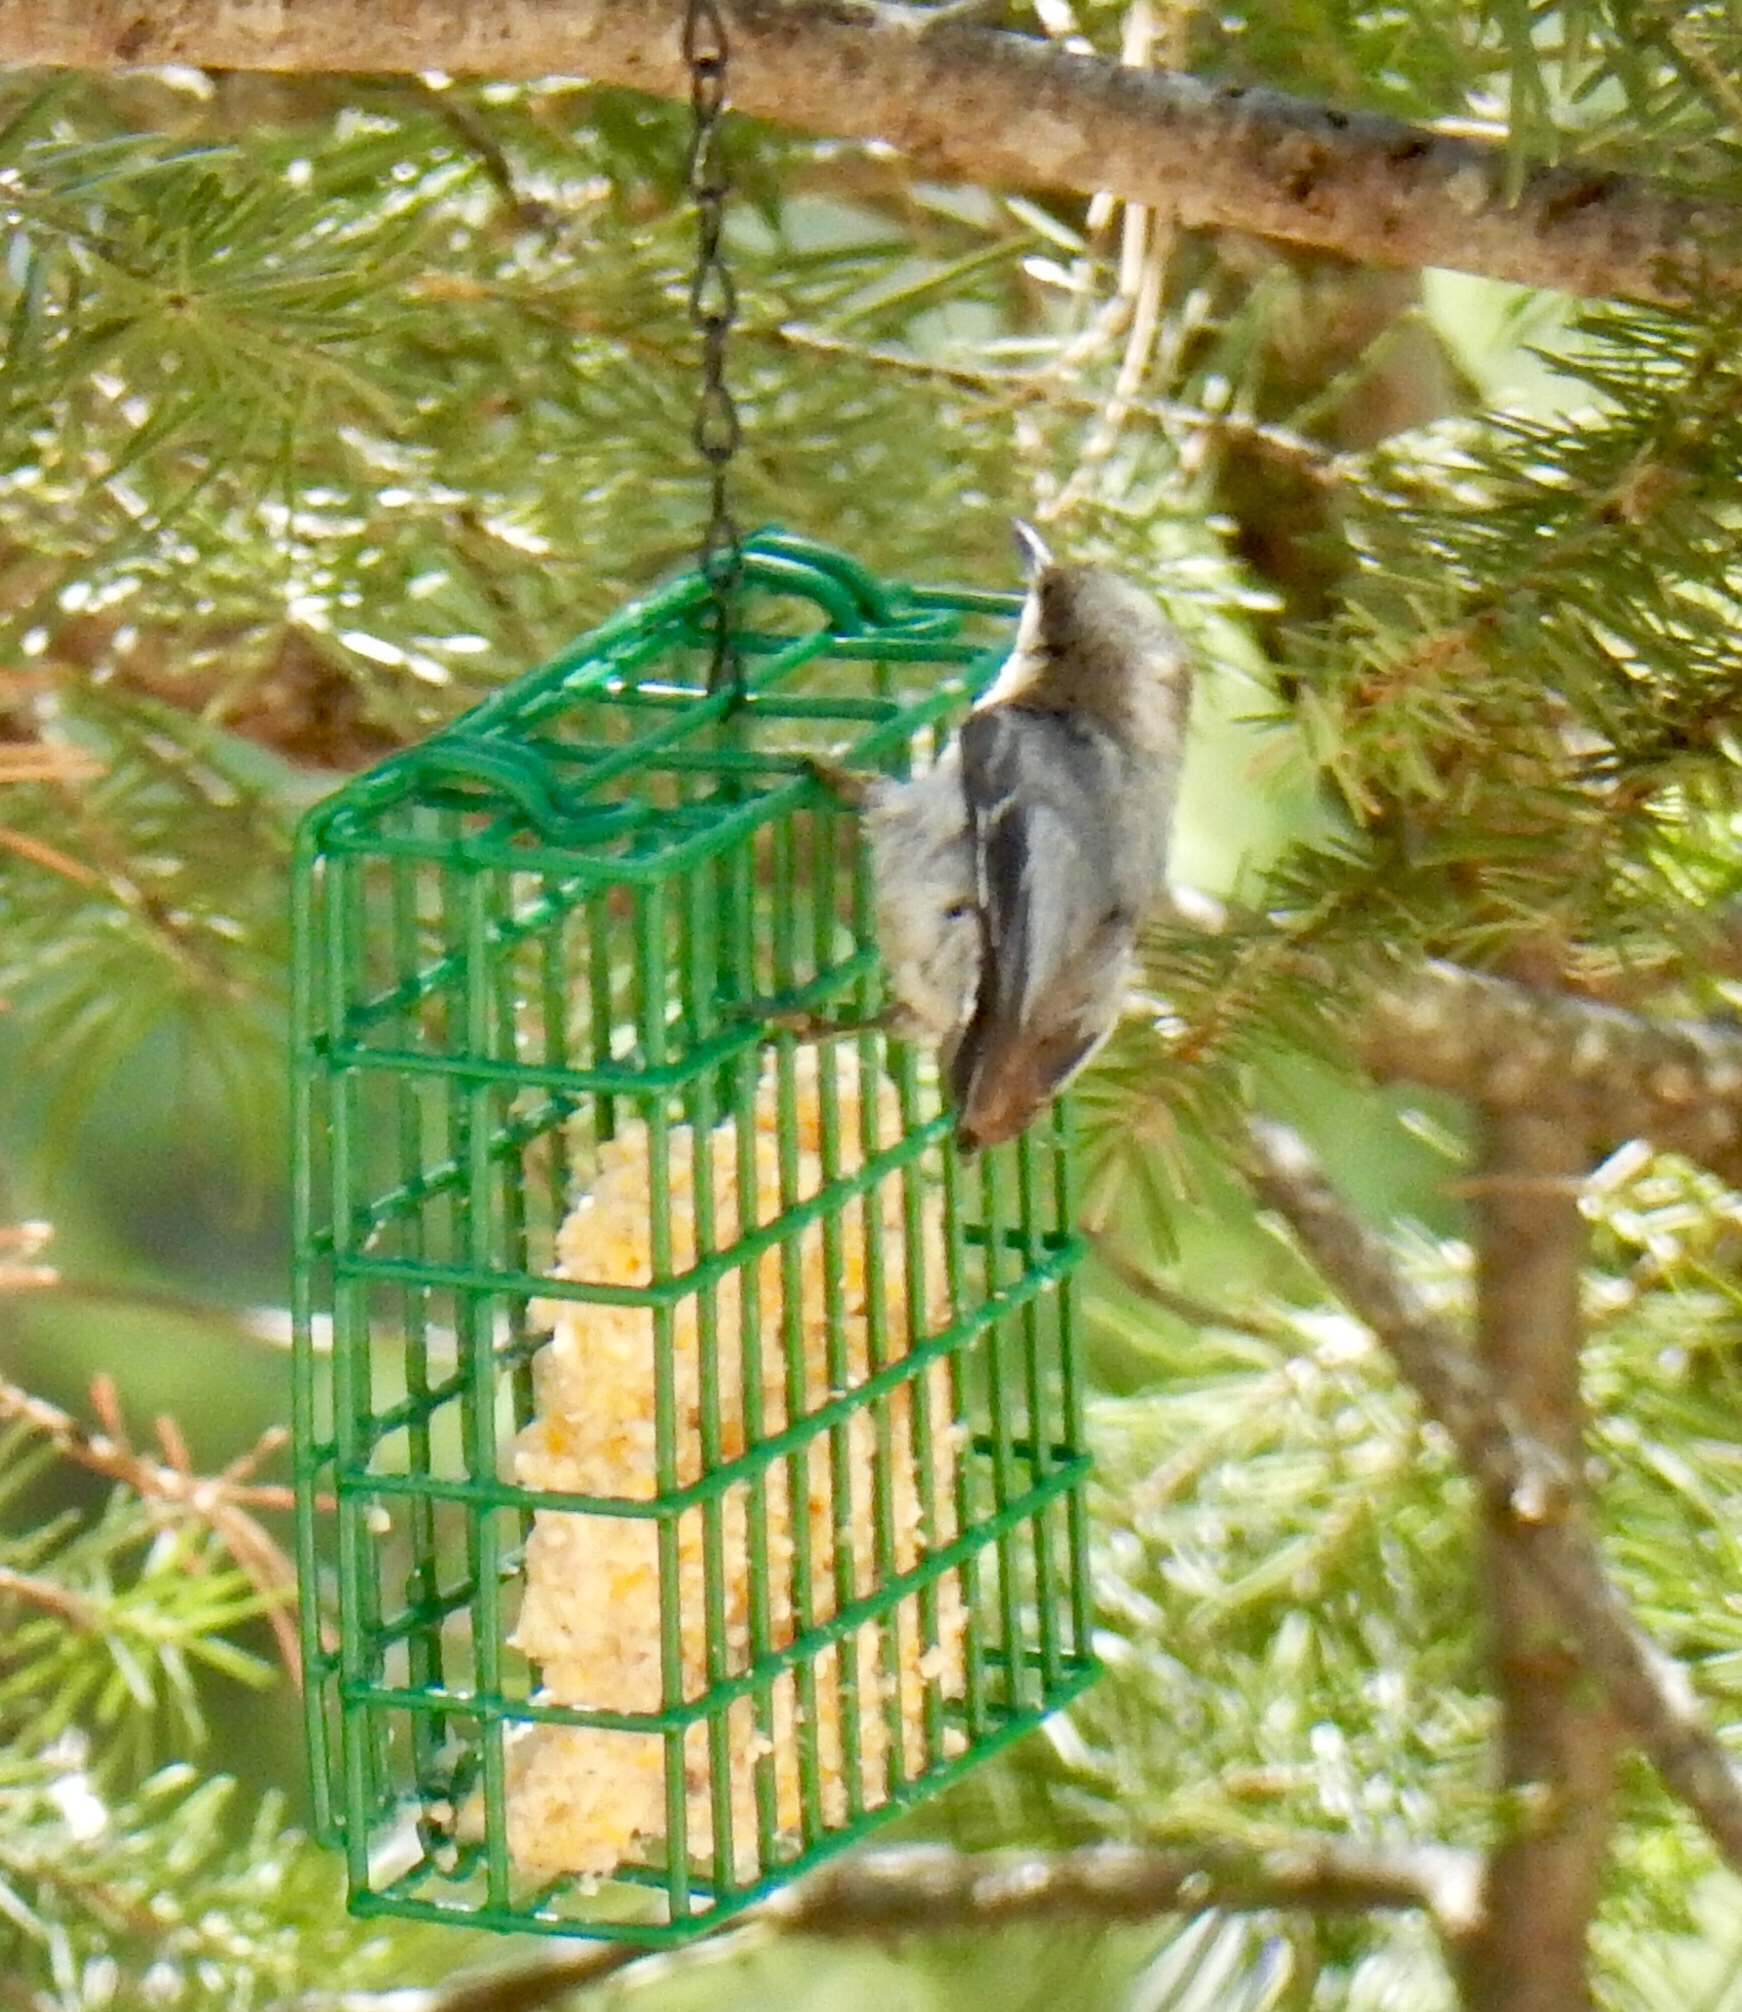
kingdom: Animalia
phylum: Chordata
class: Aves
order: Passeriformes
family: Sittidae
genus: Sitta
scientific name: Sitta pygmaea
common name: Pygmy nuthatch
